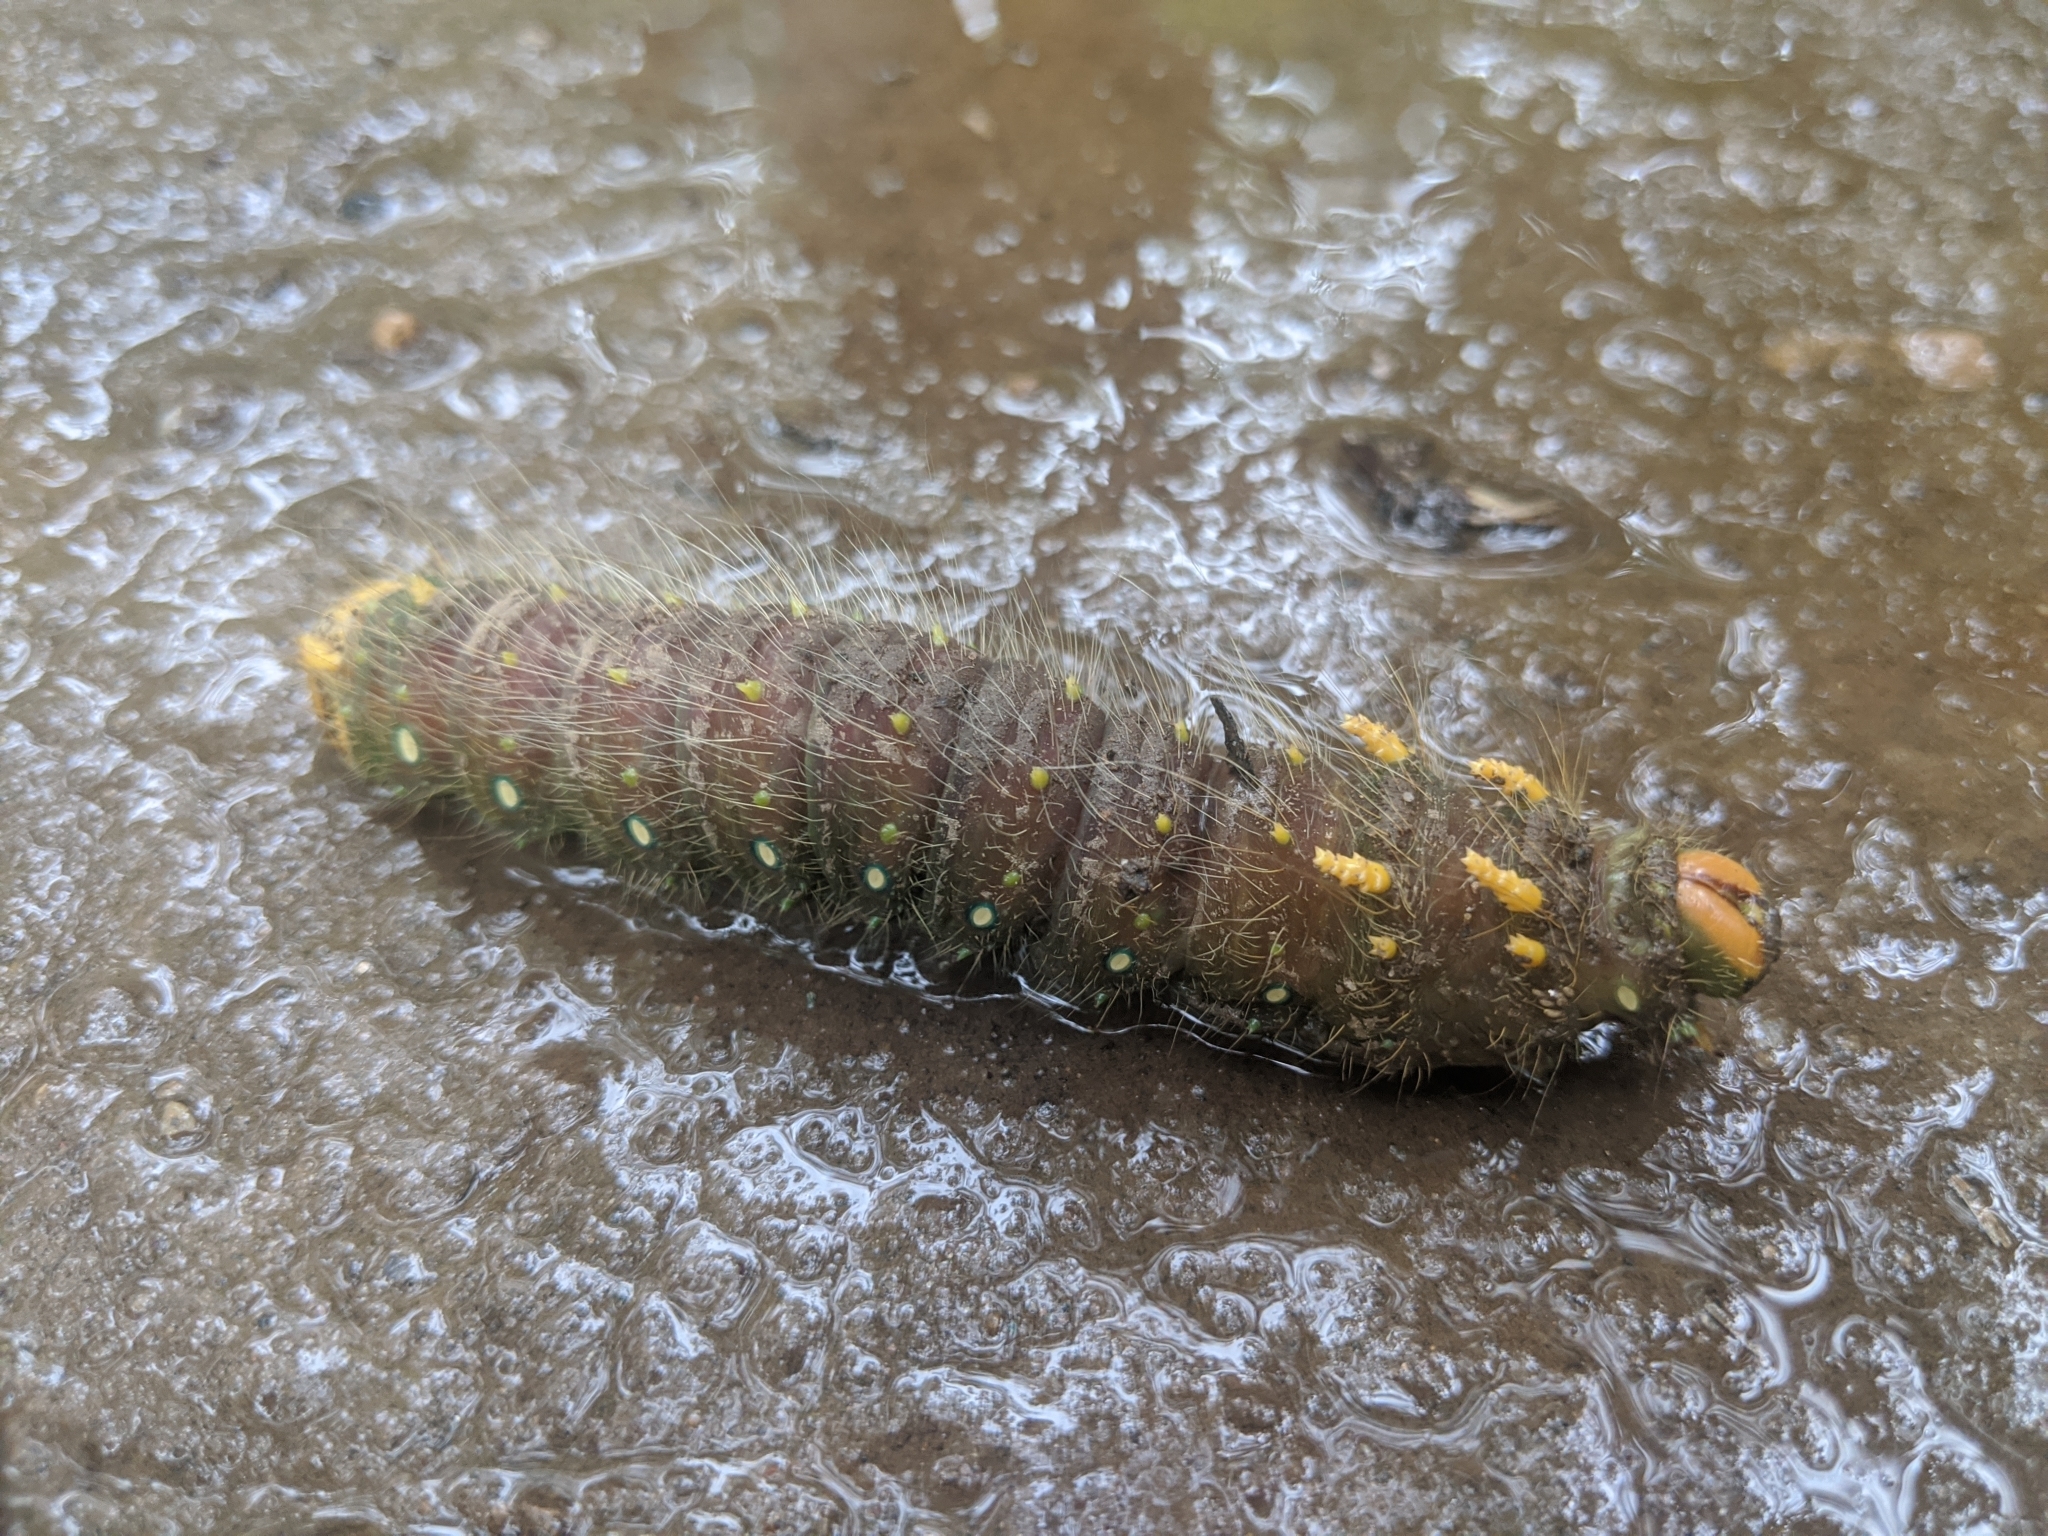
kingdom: Animalia
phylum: Arthropoda
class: Insecta
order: Lepidoptera
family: Saturniidae
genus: Eacles
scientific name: Eacles imperialis
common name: Imperial moth
